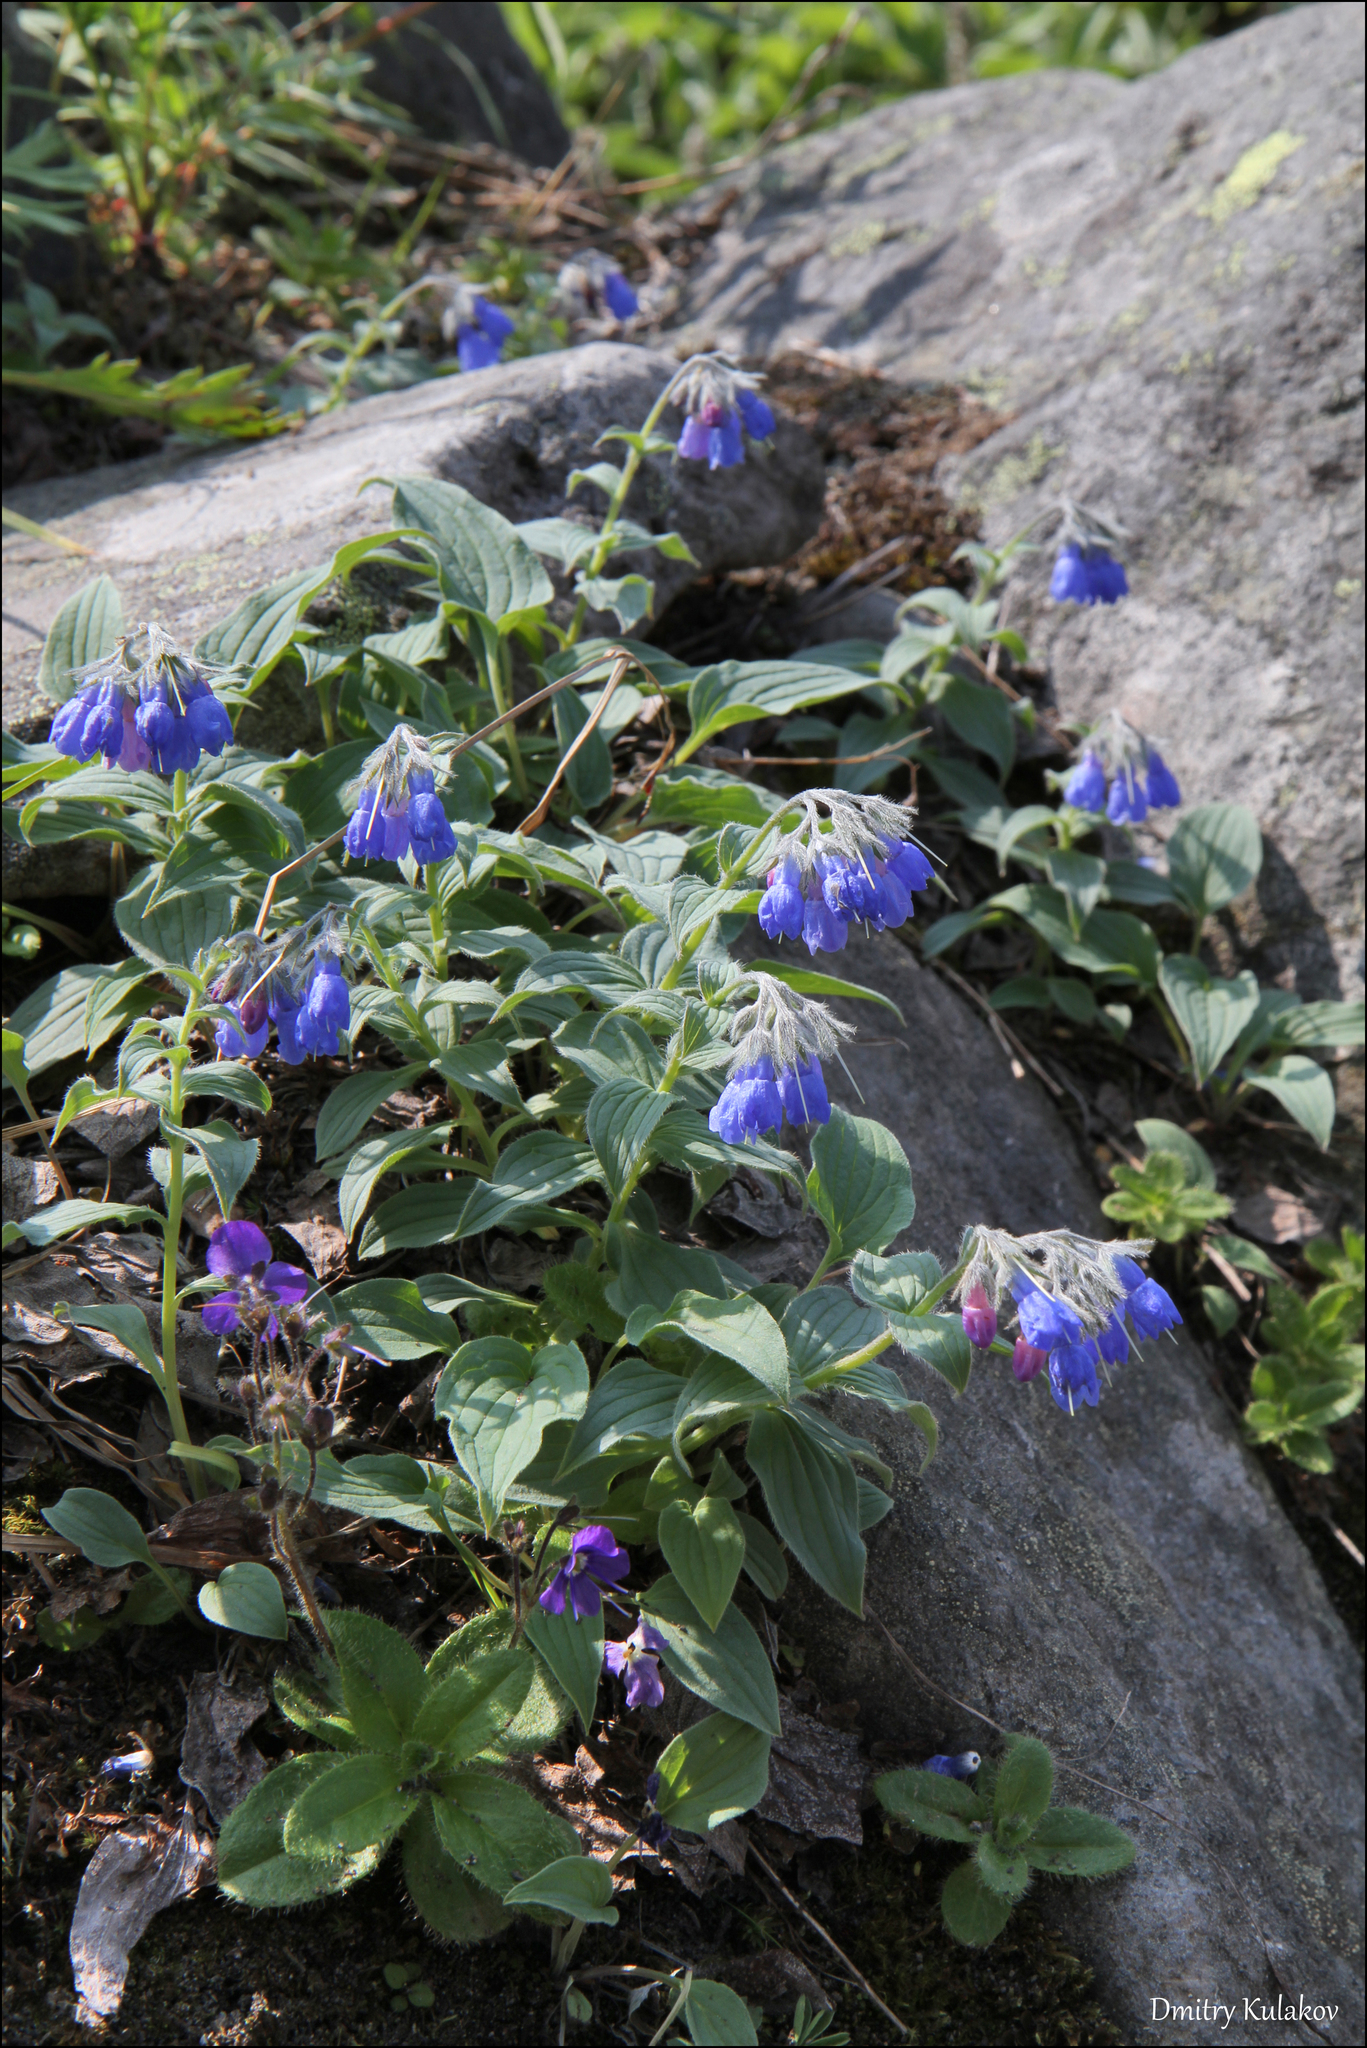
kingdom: Plantae
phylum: Tracheophyta
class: Magnoliopsida
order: Boraginales
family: Boraginaceae
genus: Mertensia
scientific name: Mertensia kamczatica
